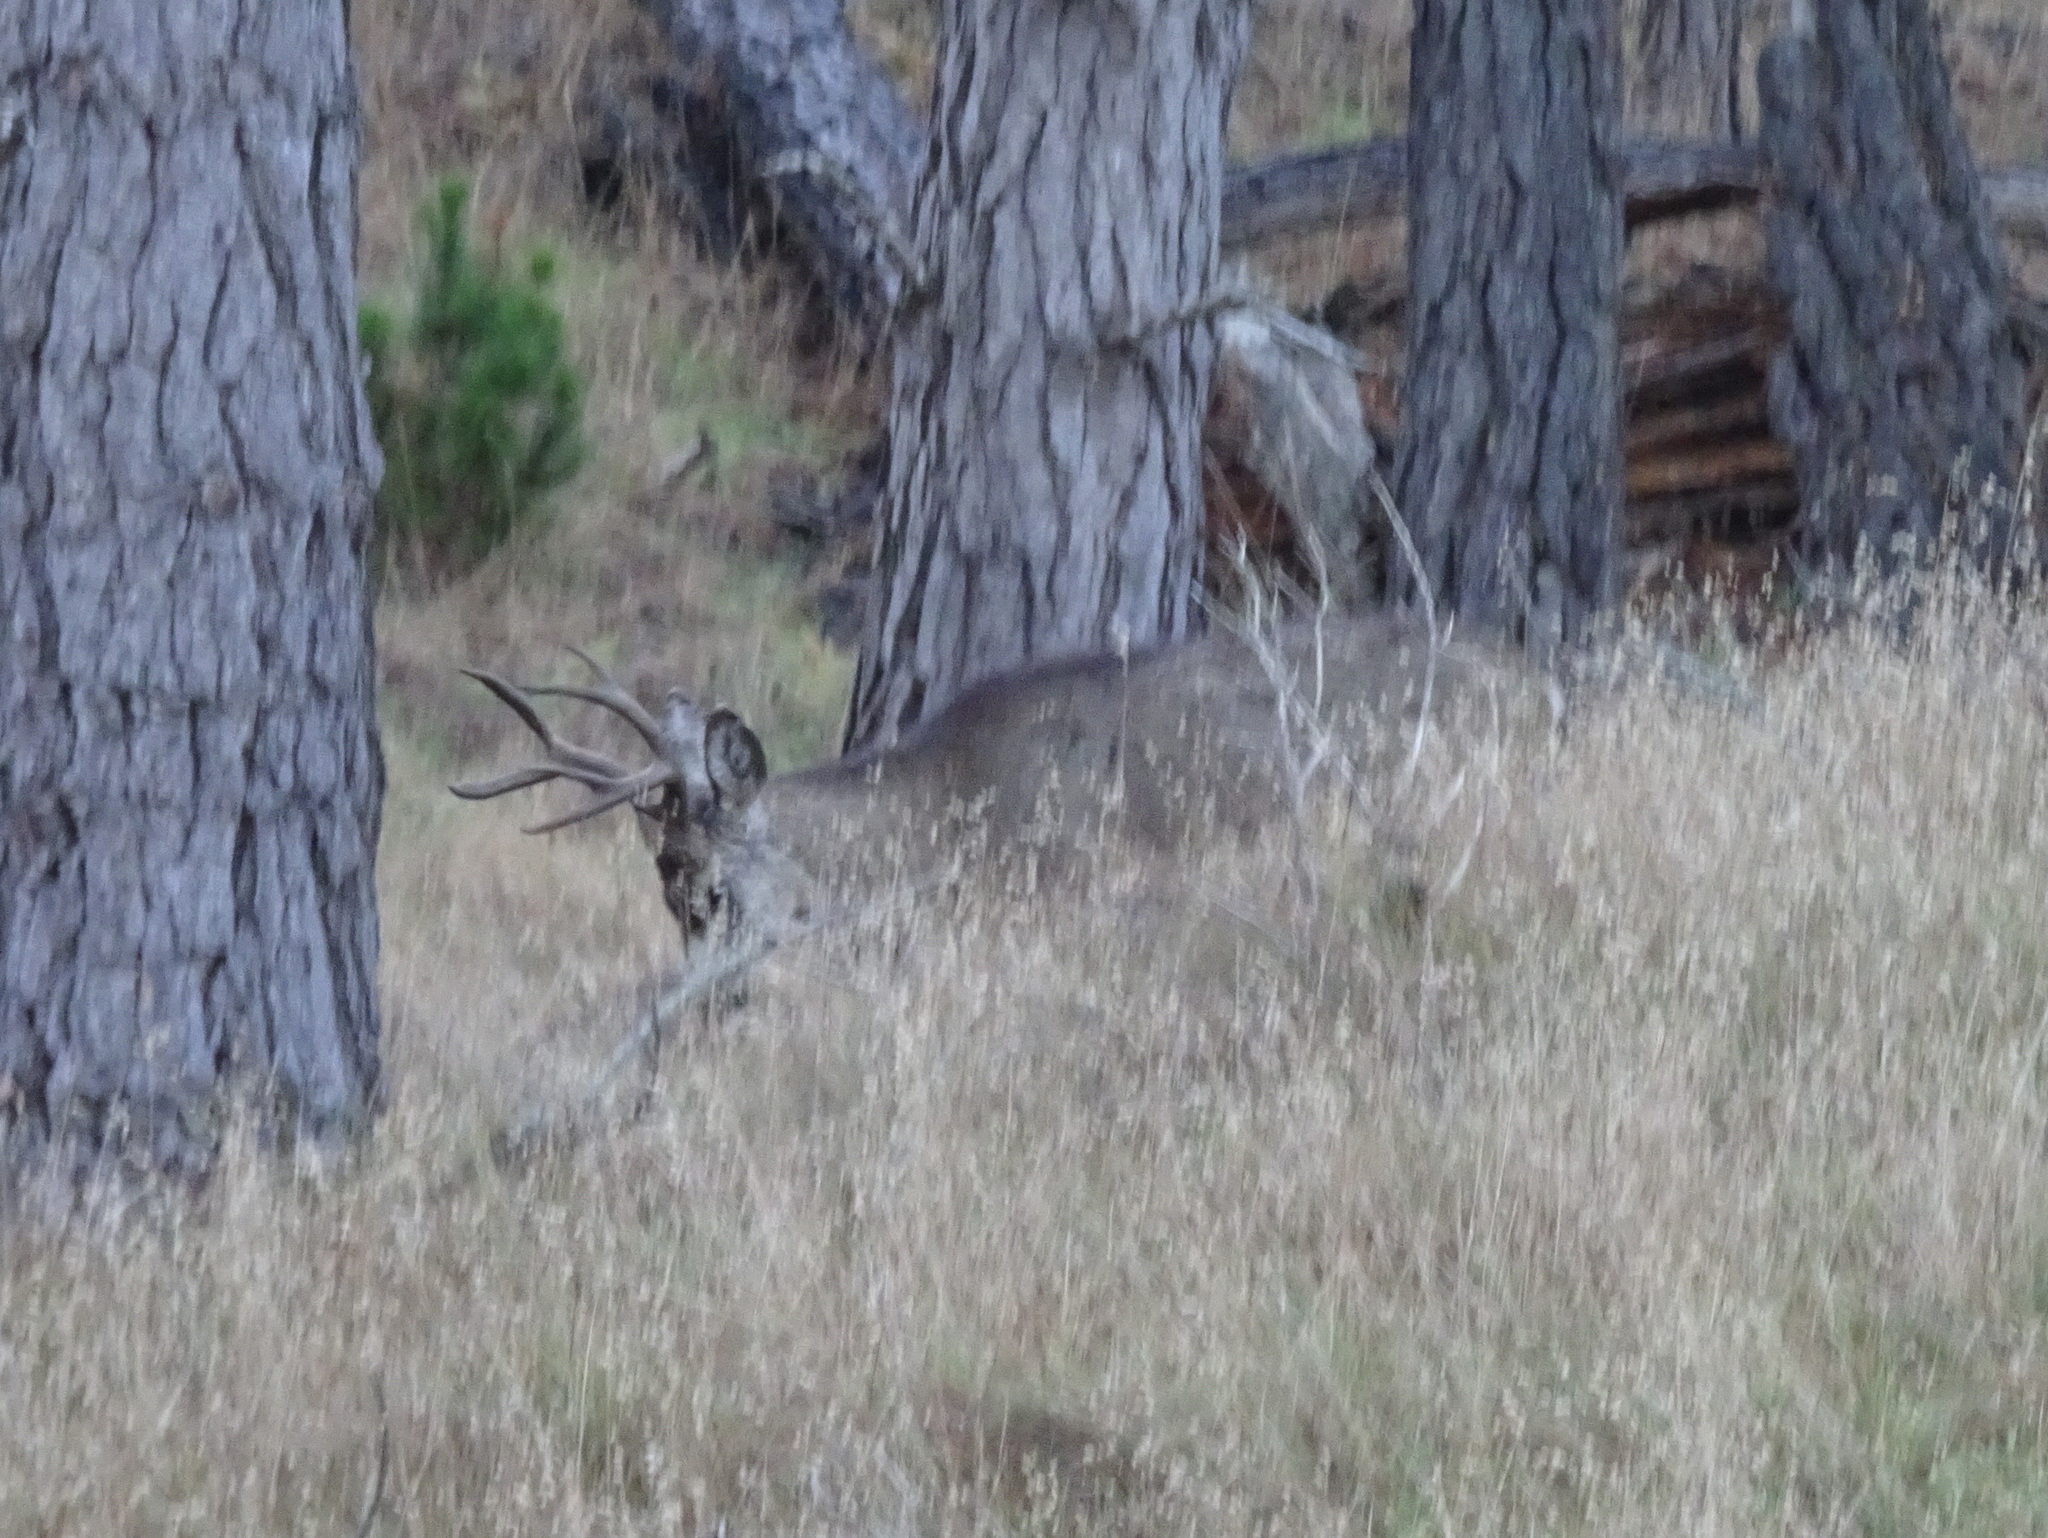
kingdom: Animalia
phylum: Chordata
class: Mammalia
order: Artiodactyla
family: Cervidae
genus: Odocoileus
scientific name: Odocoileus hemionus
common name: Mule deer
